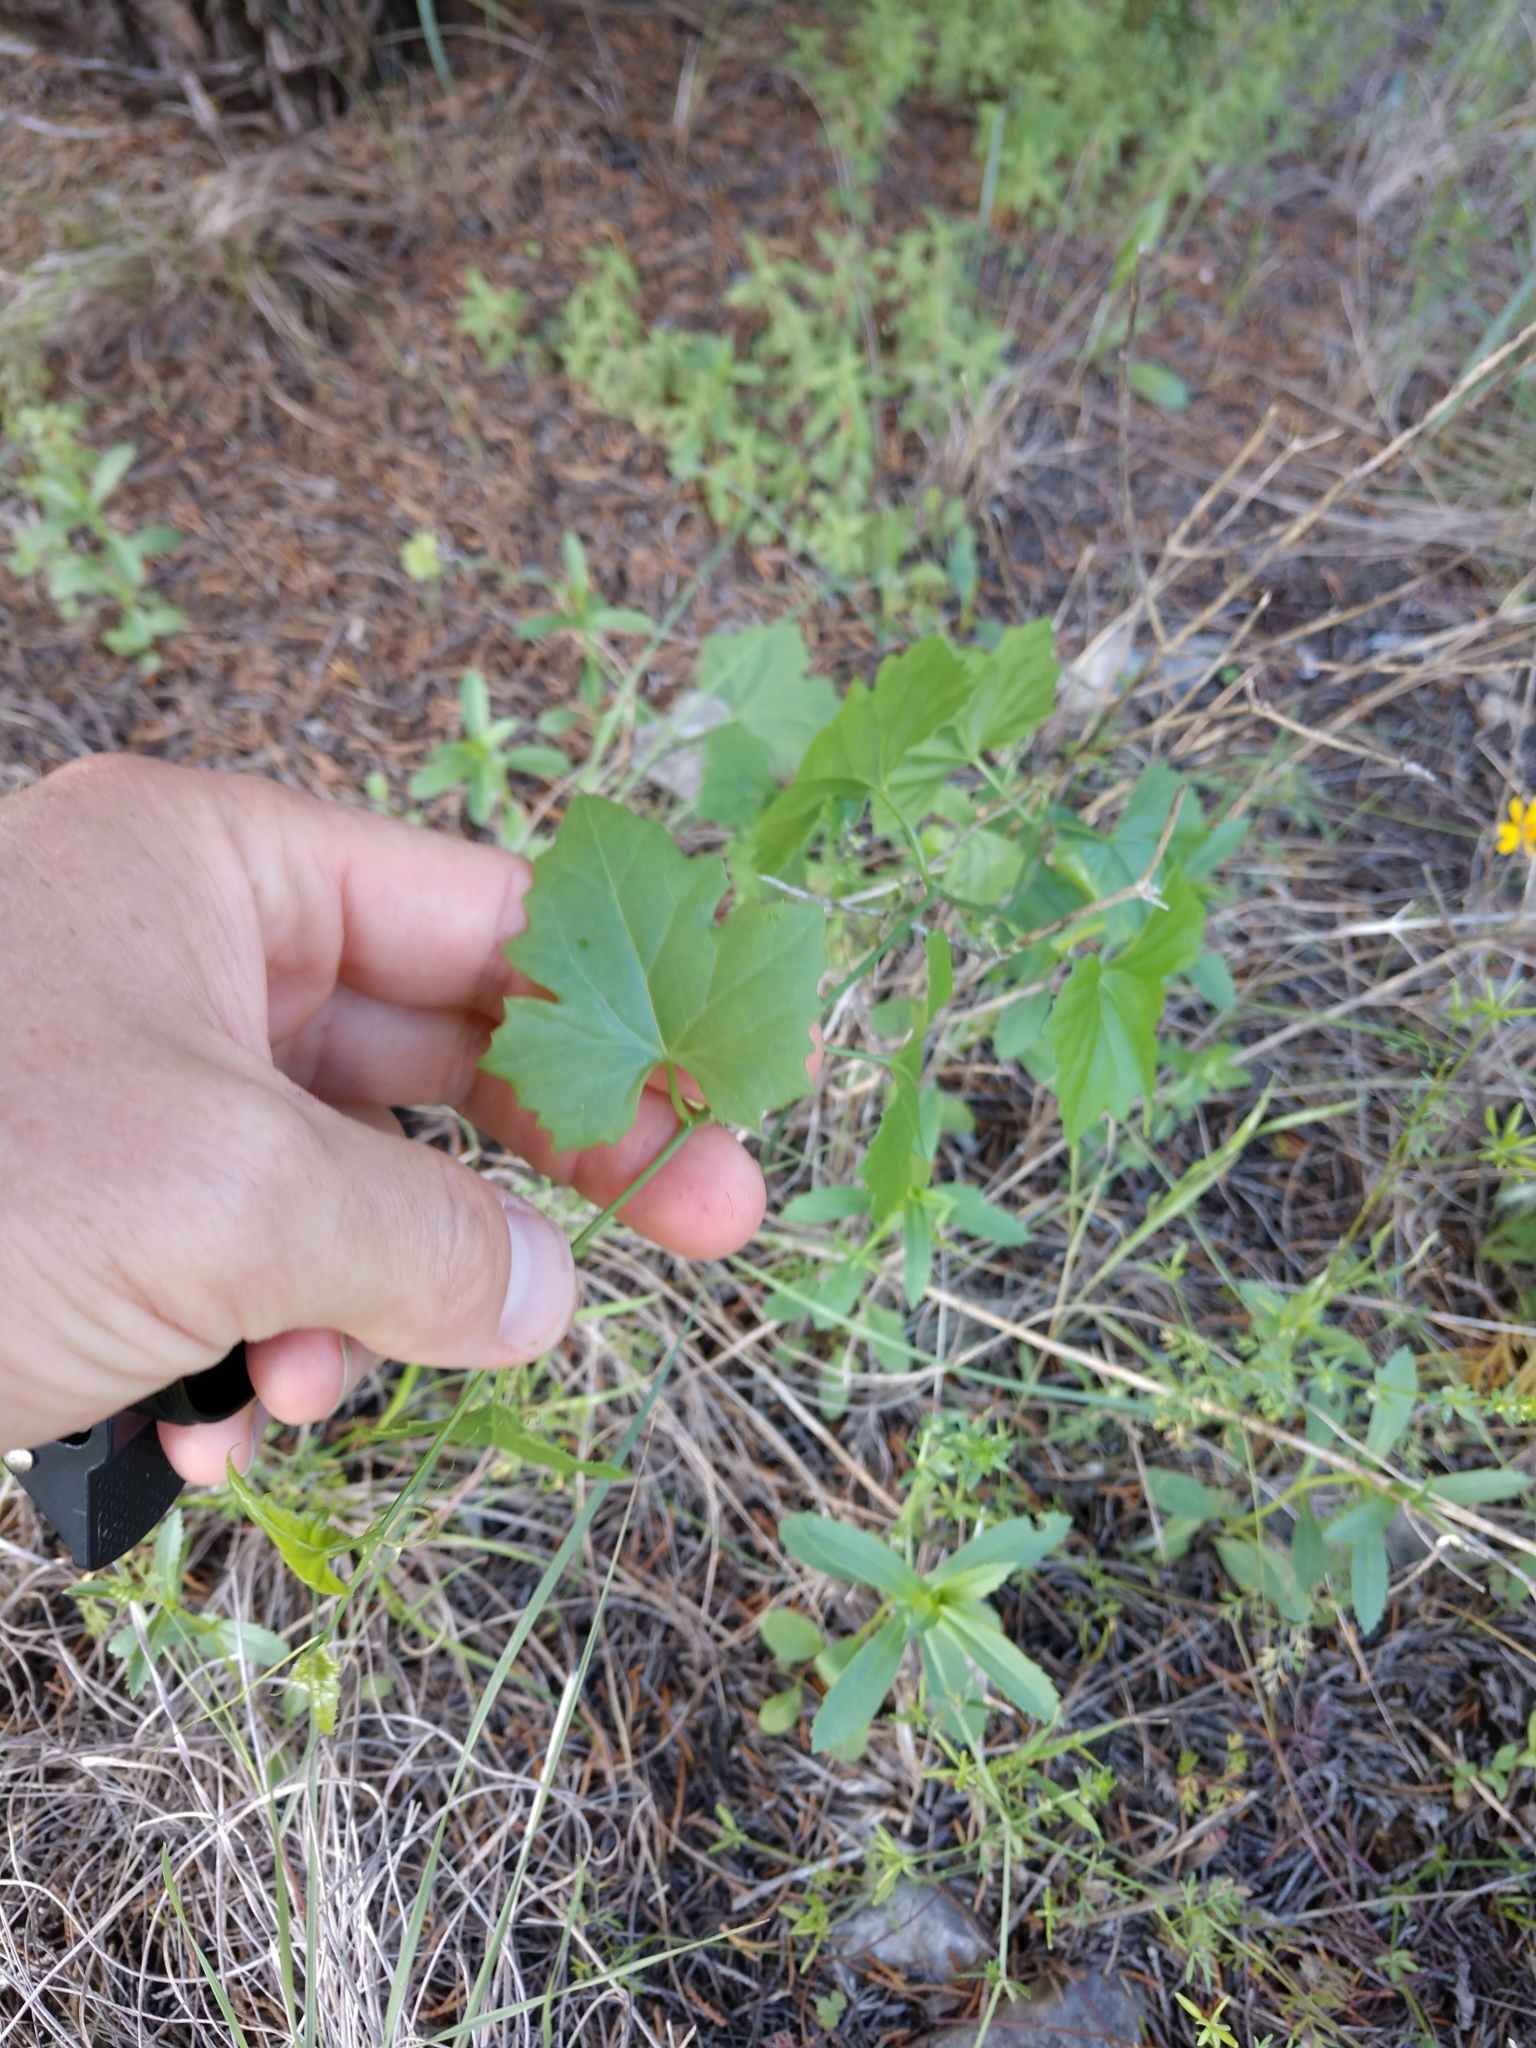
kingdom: Plantae
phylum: Tracheophyta
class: Magnoliopsida
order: Cucurbitales
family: Cucurbitaceae
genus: Ibervillea
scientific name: Ibervillea lindheimeri
